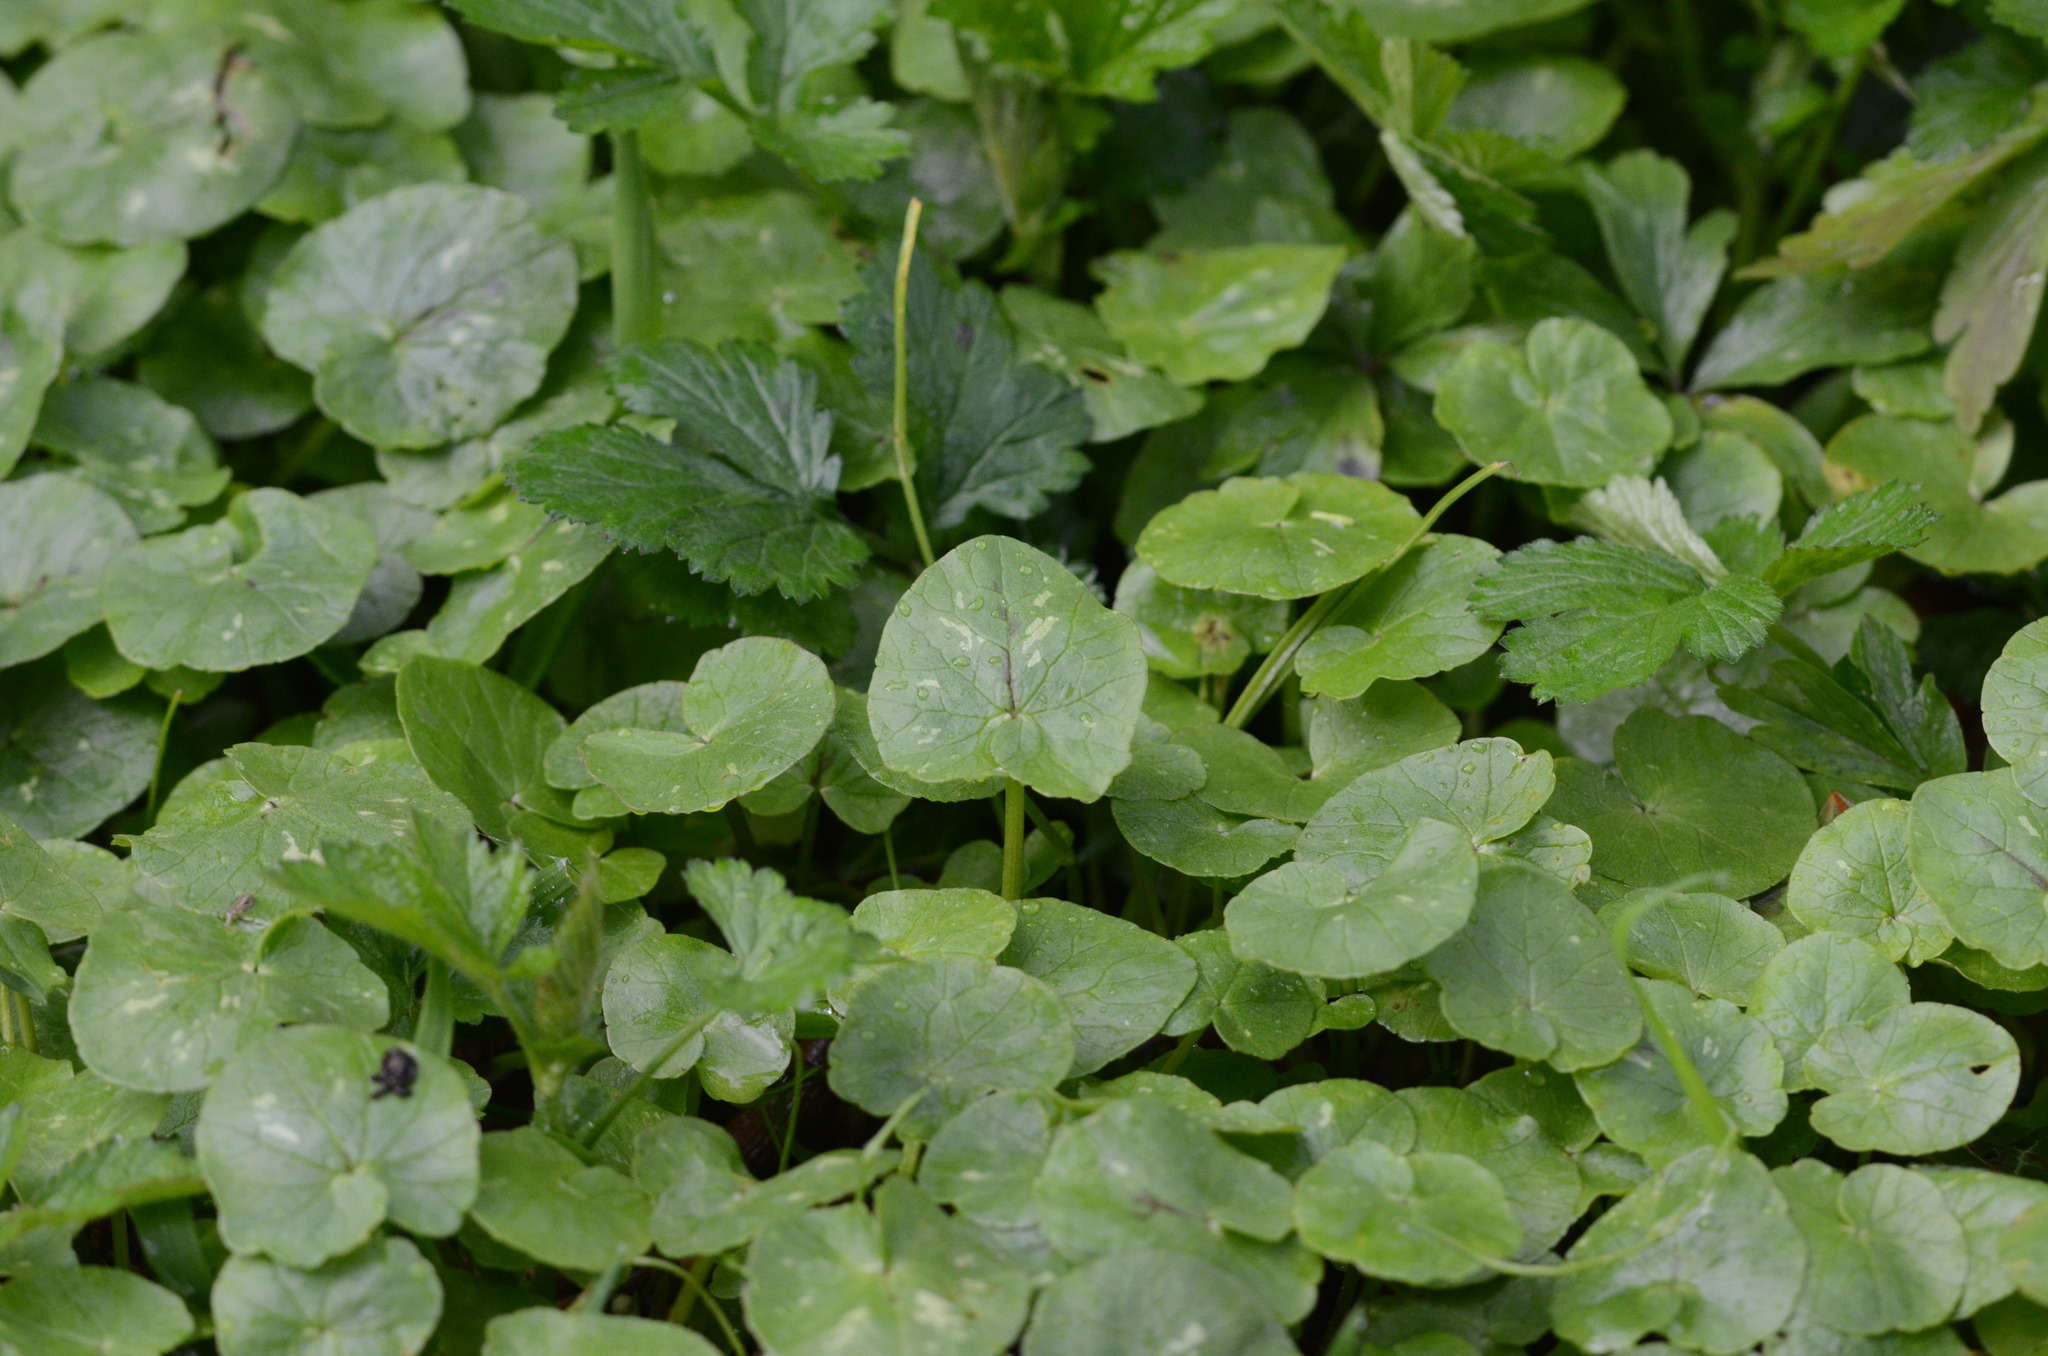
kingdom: Plantae
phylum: Tracheophyta
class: Magnoliopsida
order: Ranunculales
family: Ranunculaceae
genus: Ficaria
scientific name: Ficaria verna
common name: Lesser celandine
